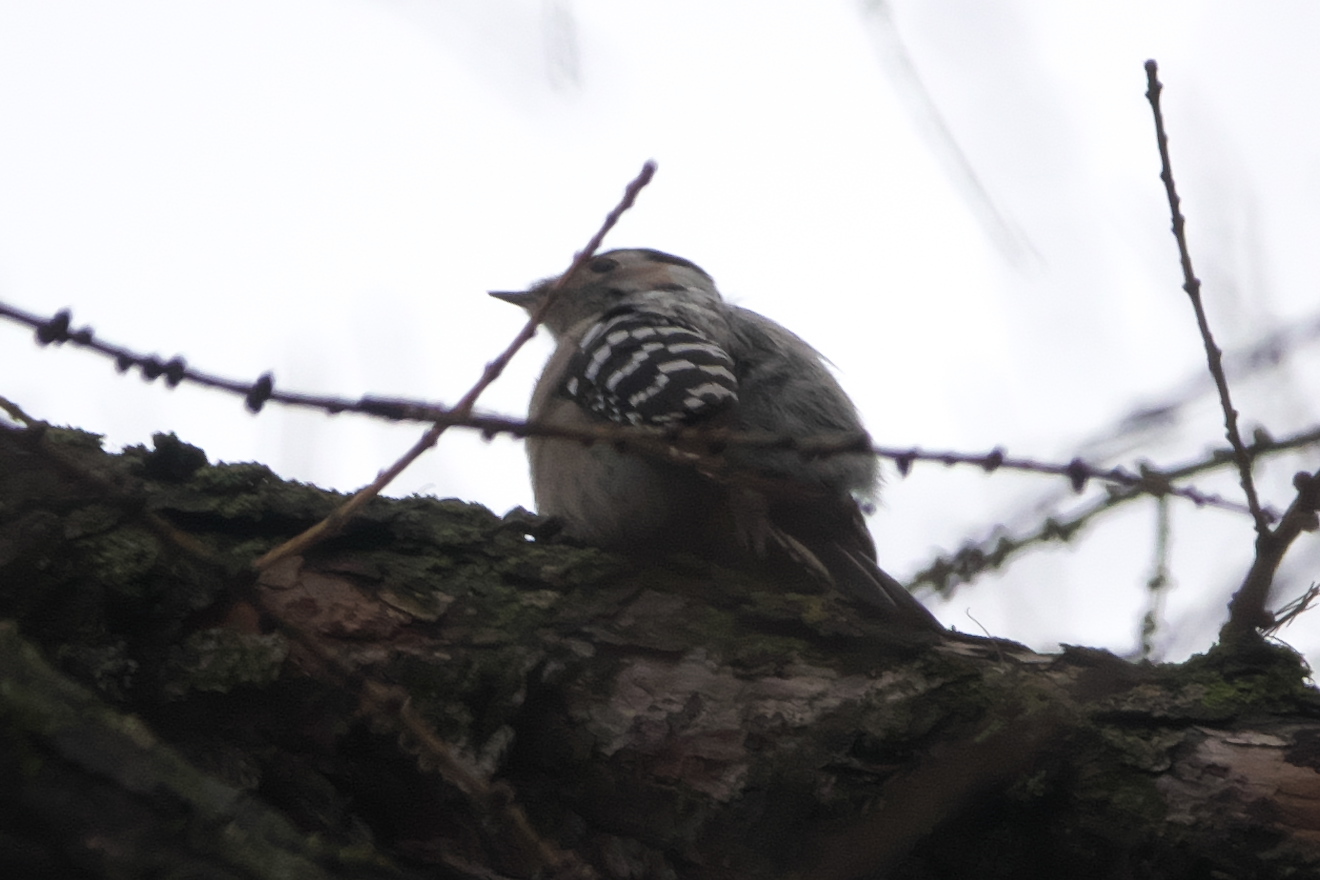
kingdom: Animalia
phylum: Chordata
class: Aves
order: Piciformes
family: Picidae
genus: Dryobates
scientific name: Dryobates minor
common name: Lesser spotted woodpecker
